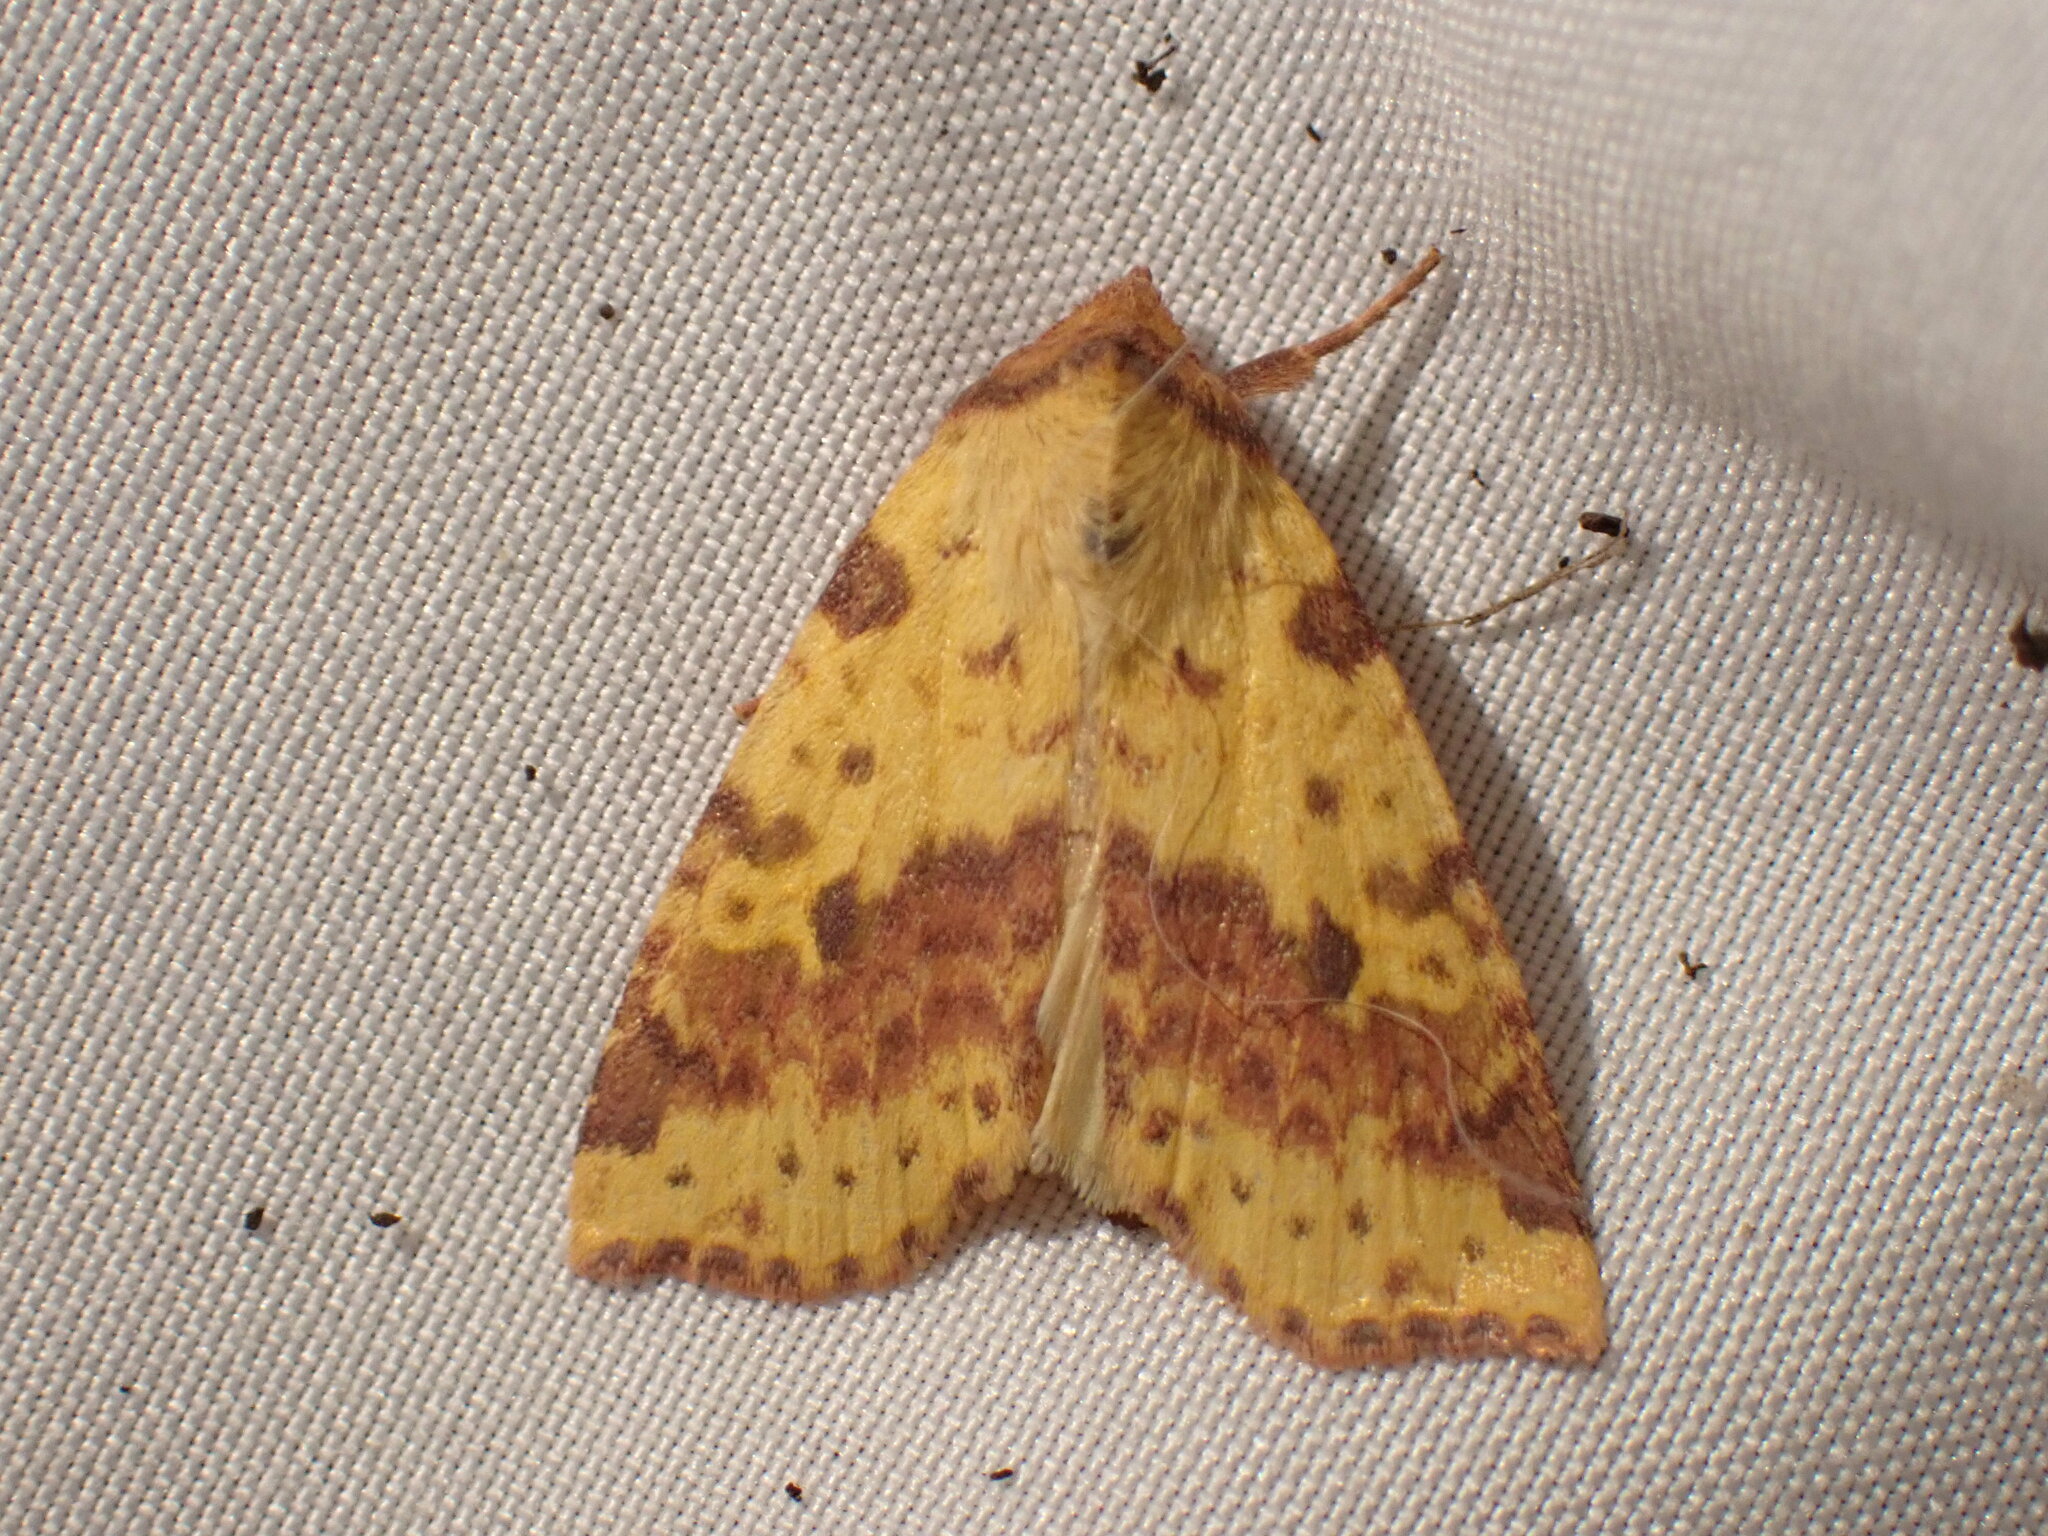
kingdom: Animalia
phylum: Arthropoda
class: Insecta
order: Lepidoptera
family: Noctuidae
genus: Xanthia
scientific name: Xanthia tatago
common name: Pink-banded sallow
